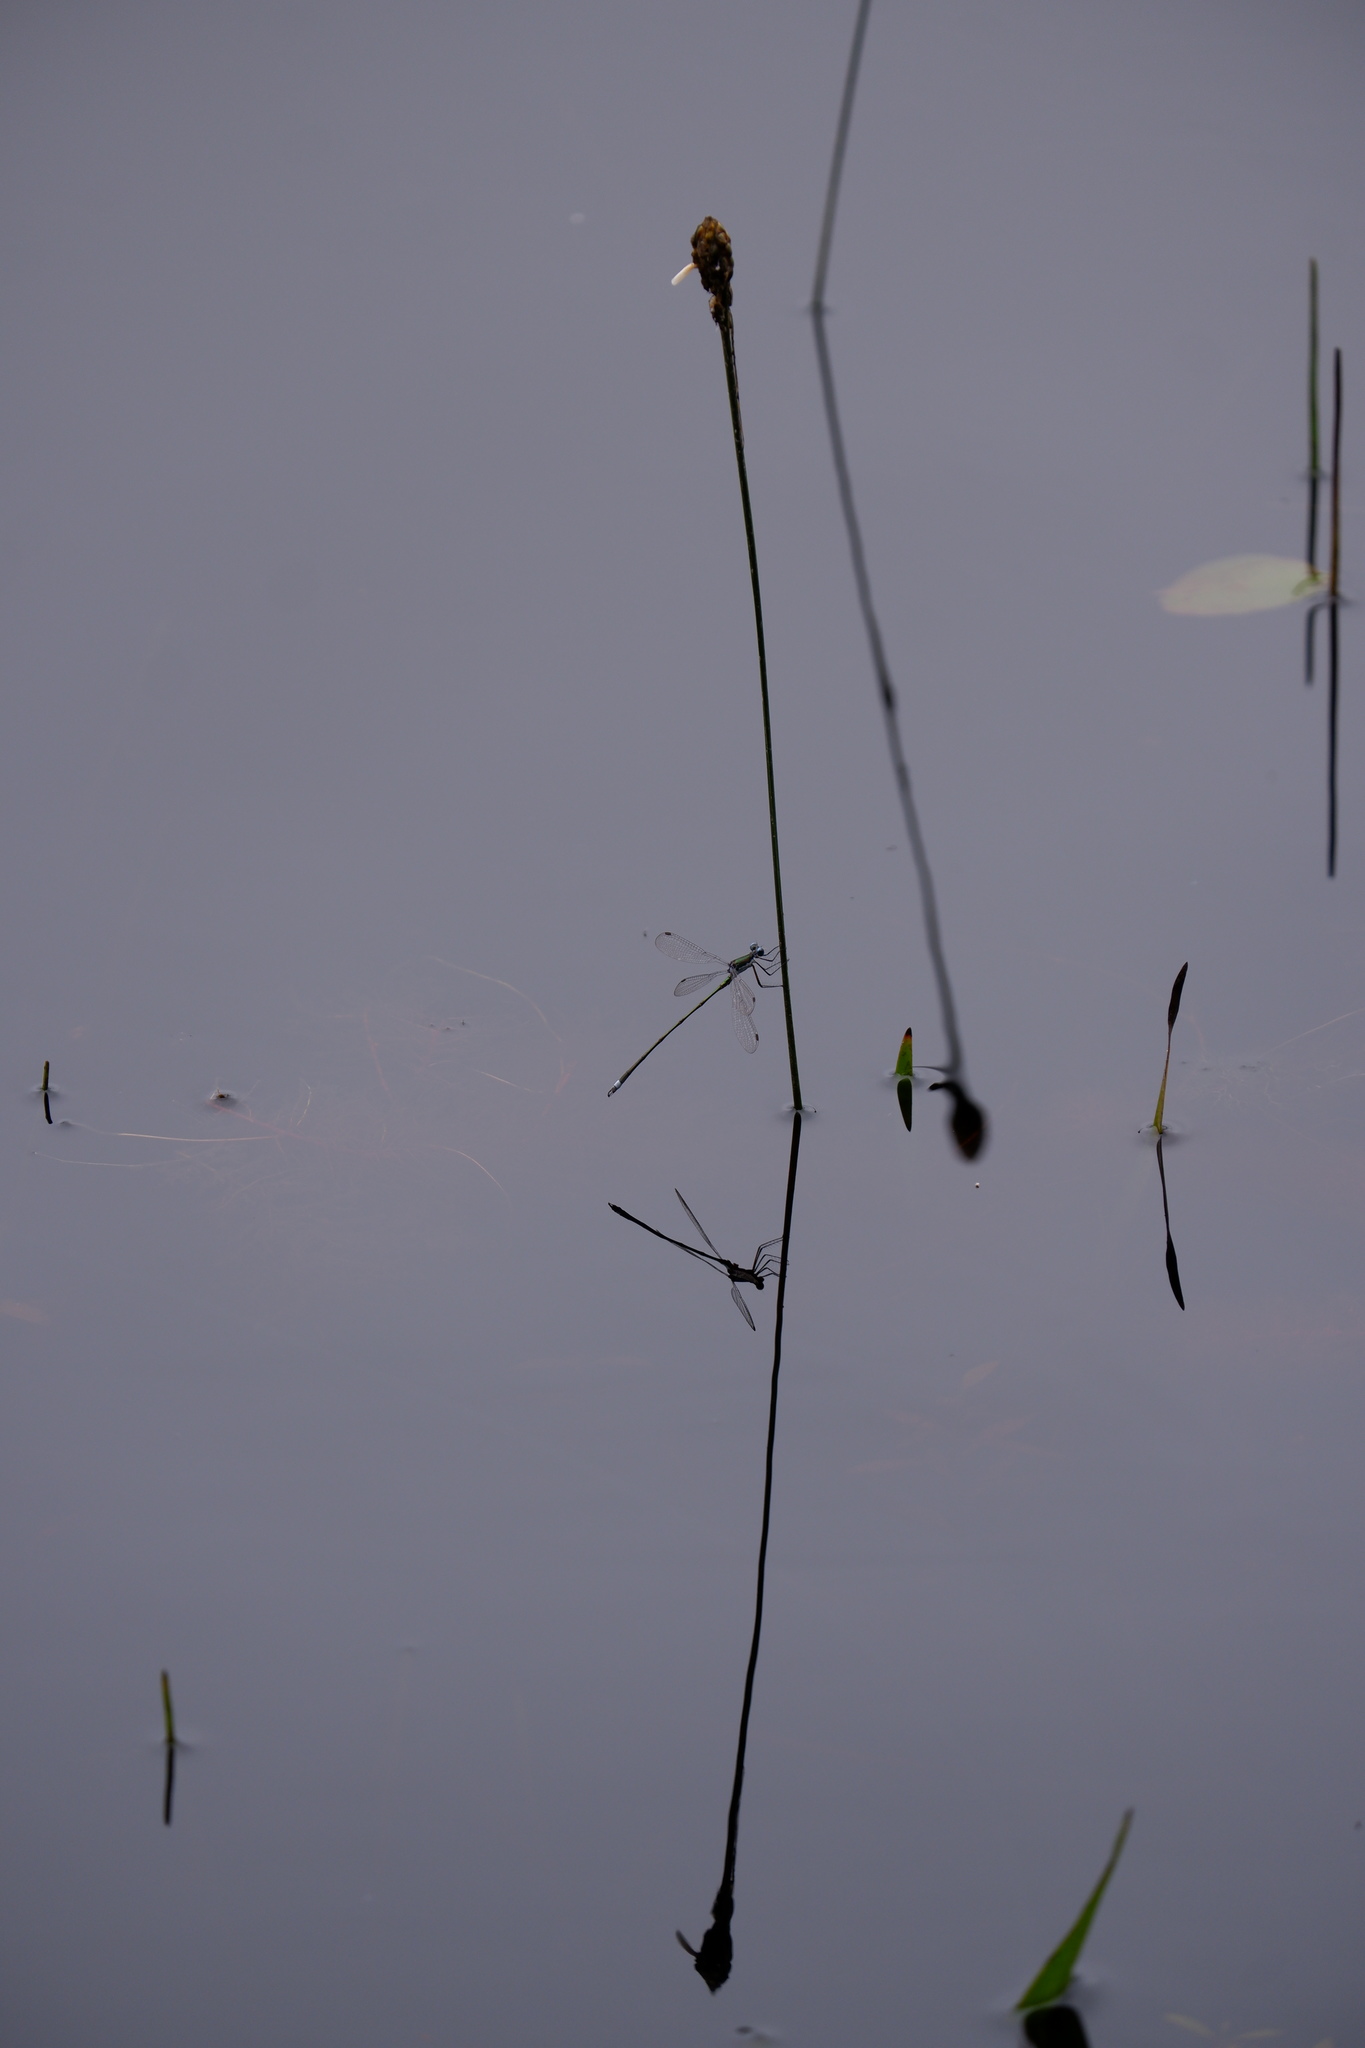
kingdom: Animalia
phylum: Arthropoda
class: Insecta
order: Odonata
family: Lestidae
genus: Lestes
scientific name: Lestes vigilax
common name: Swamp spreadwing
